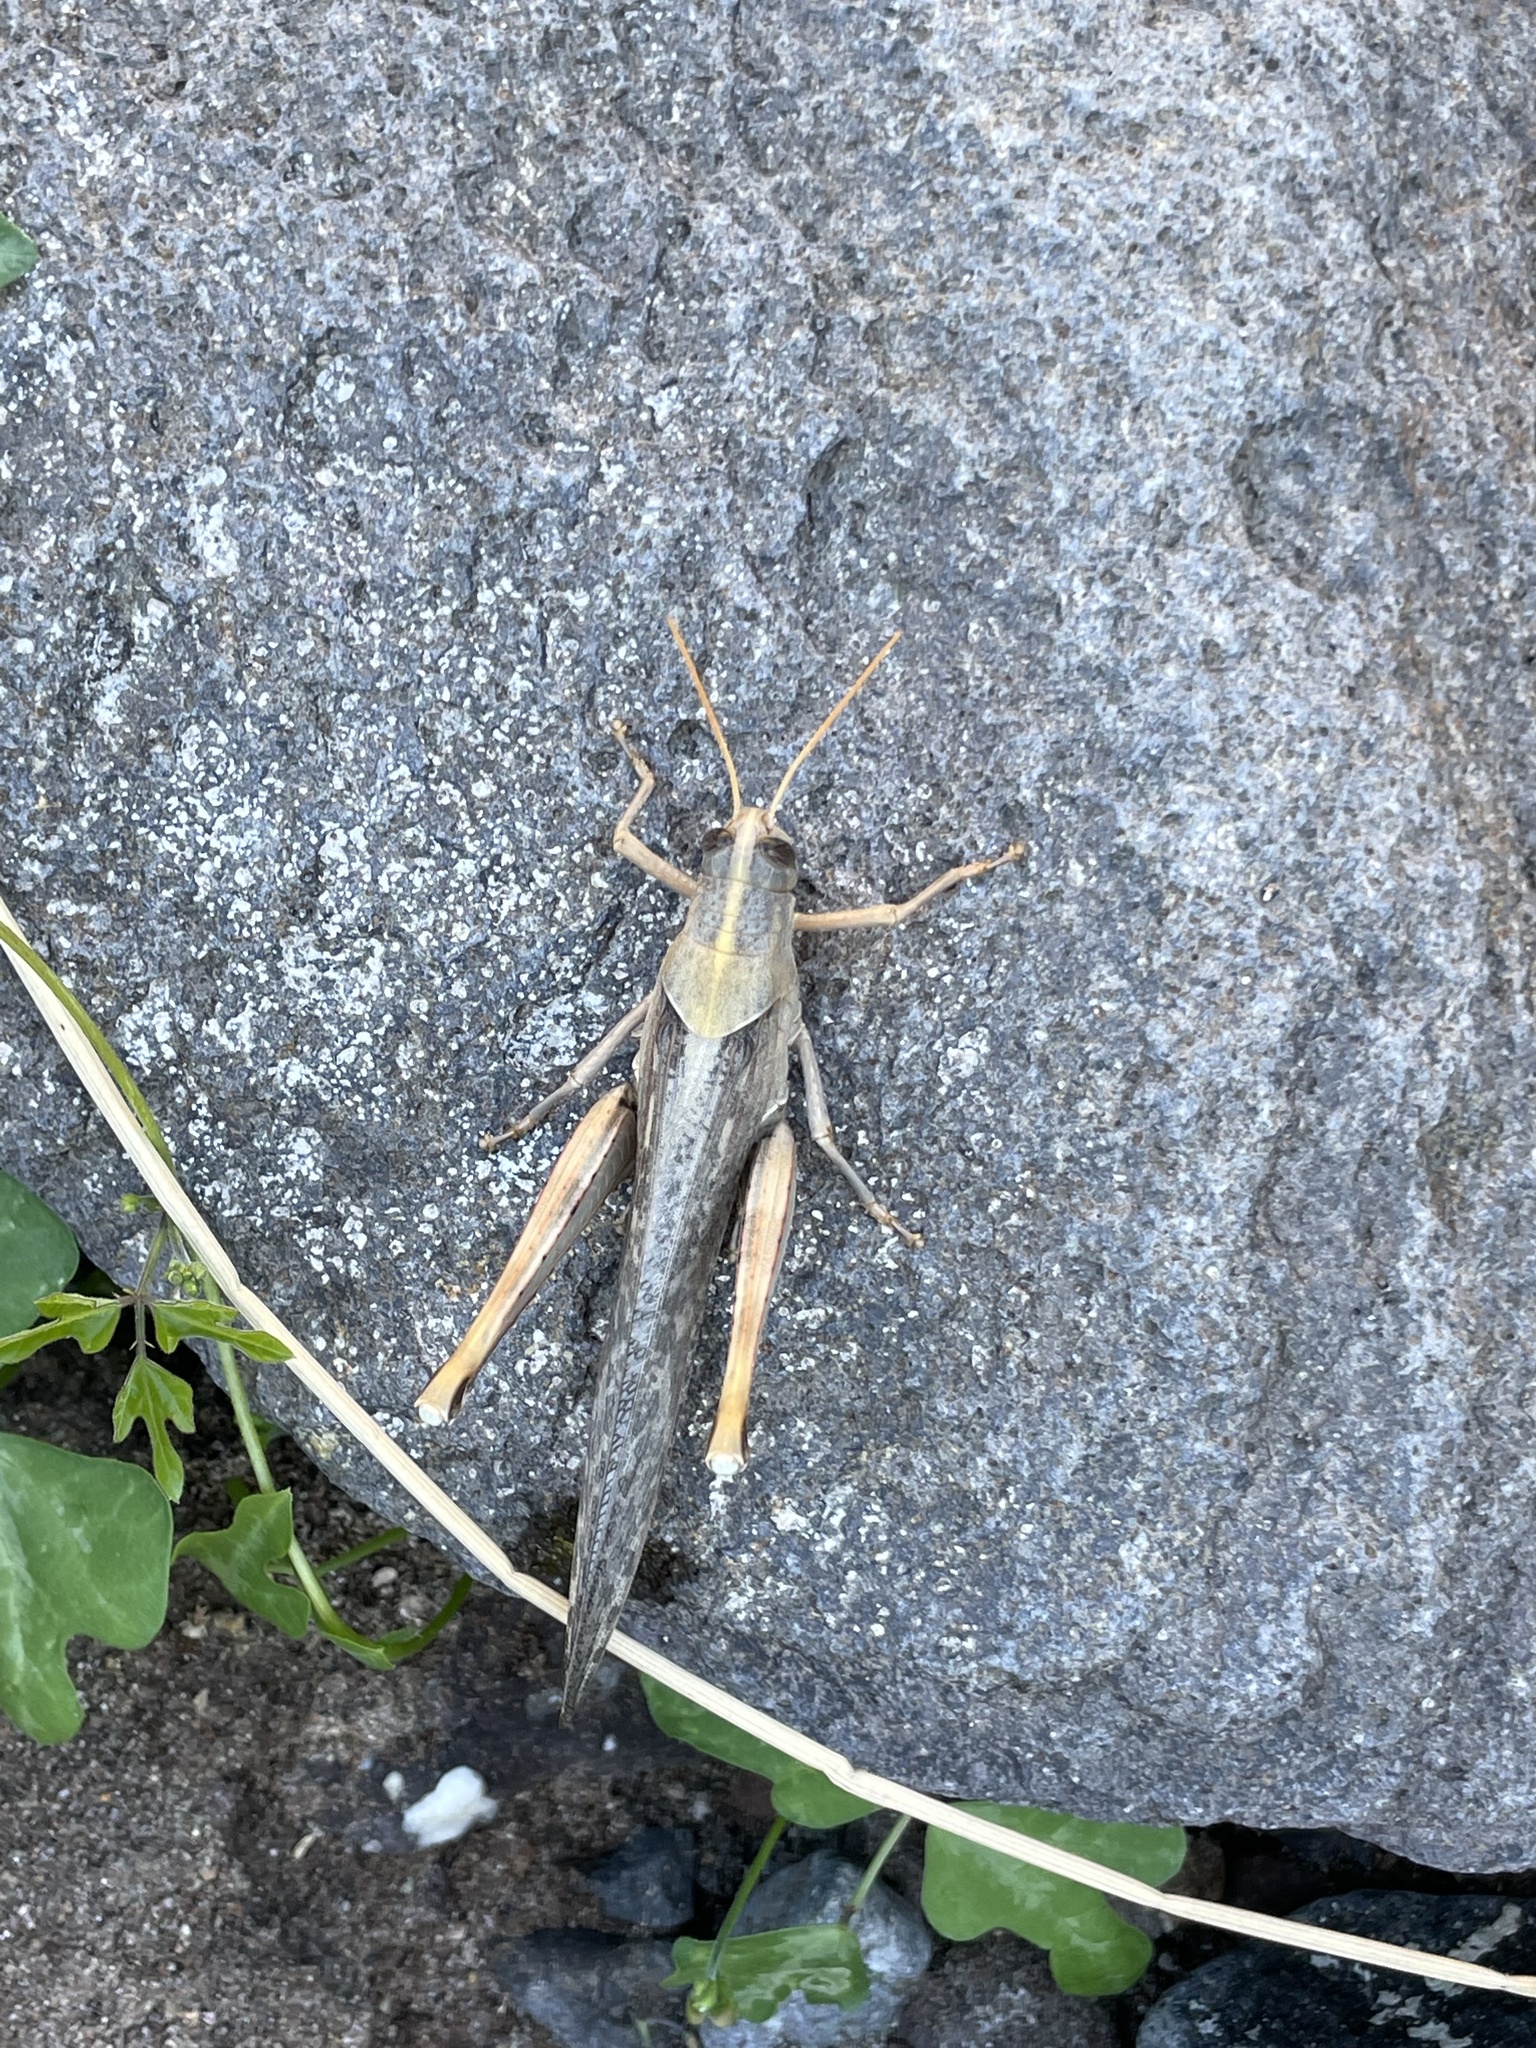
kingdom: Animalia
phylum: Arthropoda
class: Insecta
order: Orthoptera
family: Acrididae
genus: Schistocerca
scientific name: Schistocerca nitens
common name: Vagrant grasshopper
